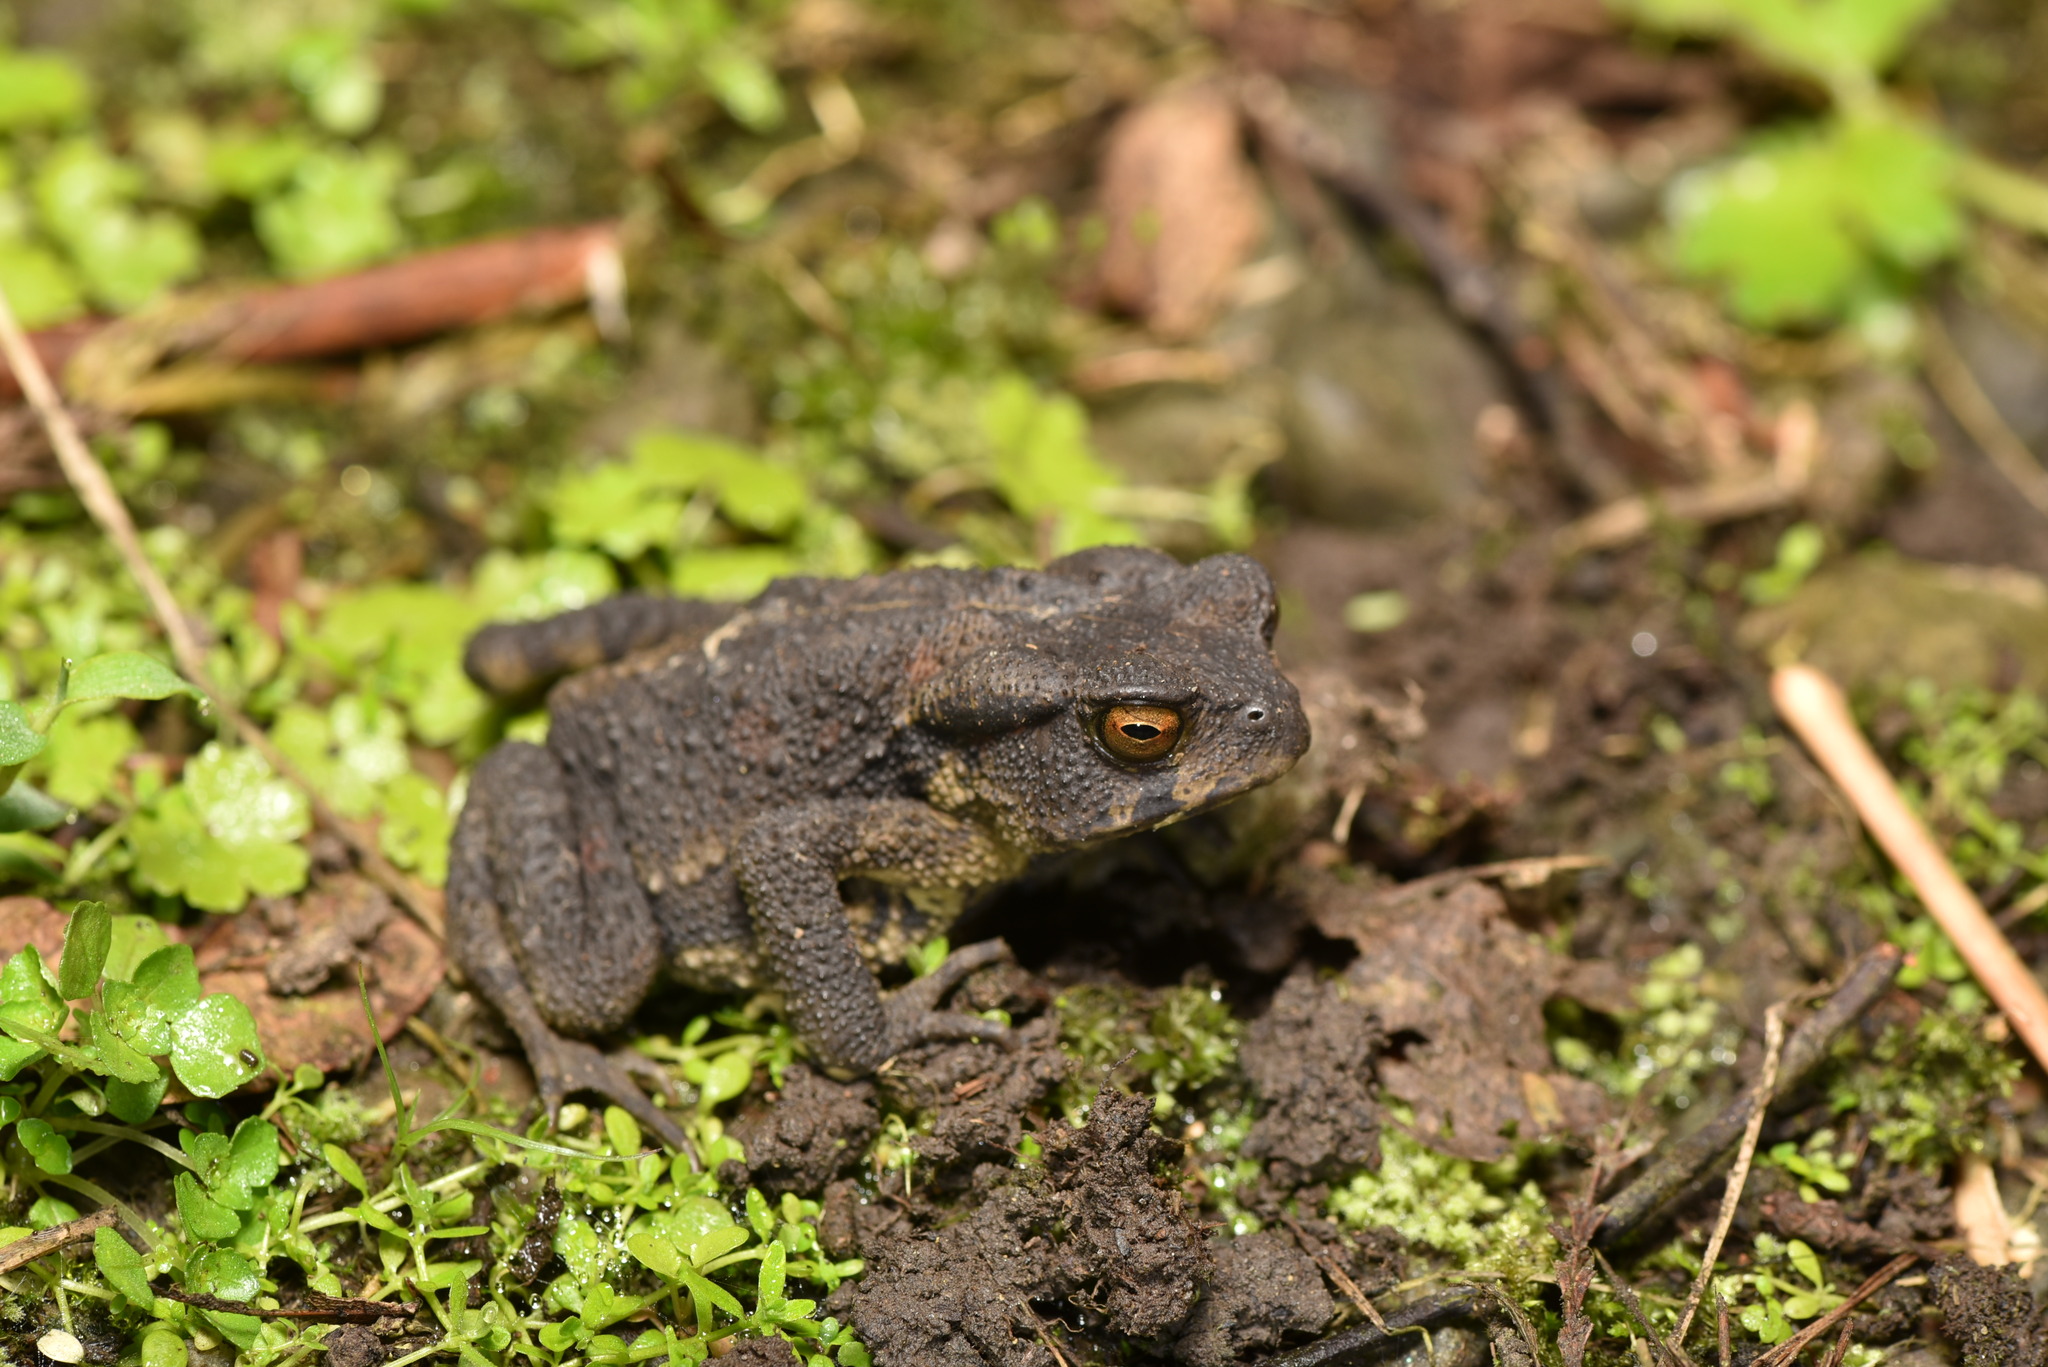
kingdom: Animalia
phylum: Chordata
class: Amphibia
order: Anura
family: Bufonidae
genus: Bufo
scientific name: Bufo bankorensis
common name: Bankor toad
